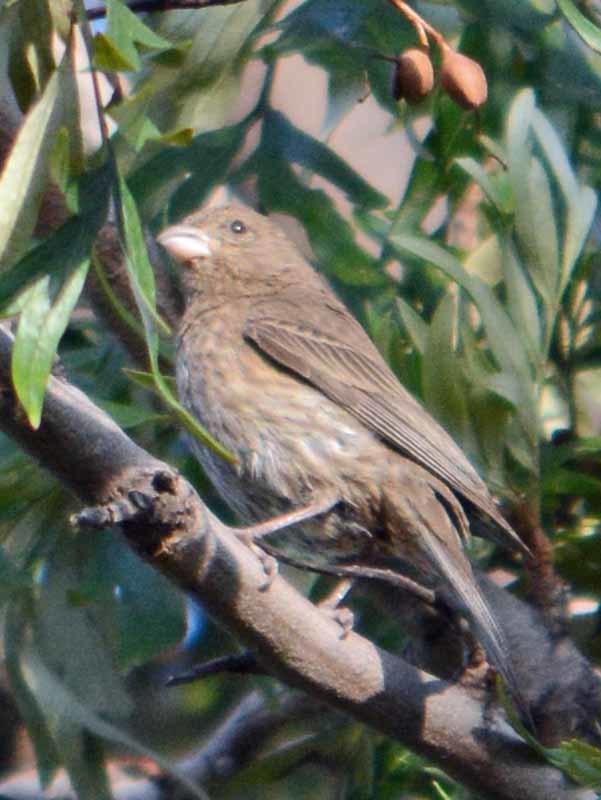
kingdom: Animalia
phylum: Chordata
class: Aves
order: Passeriformes
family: Fringillidae
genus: Haemorhous
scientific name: Haemorhous mexicanus
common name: House finch
